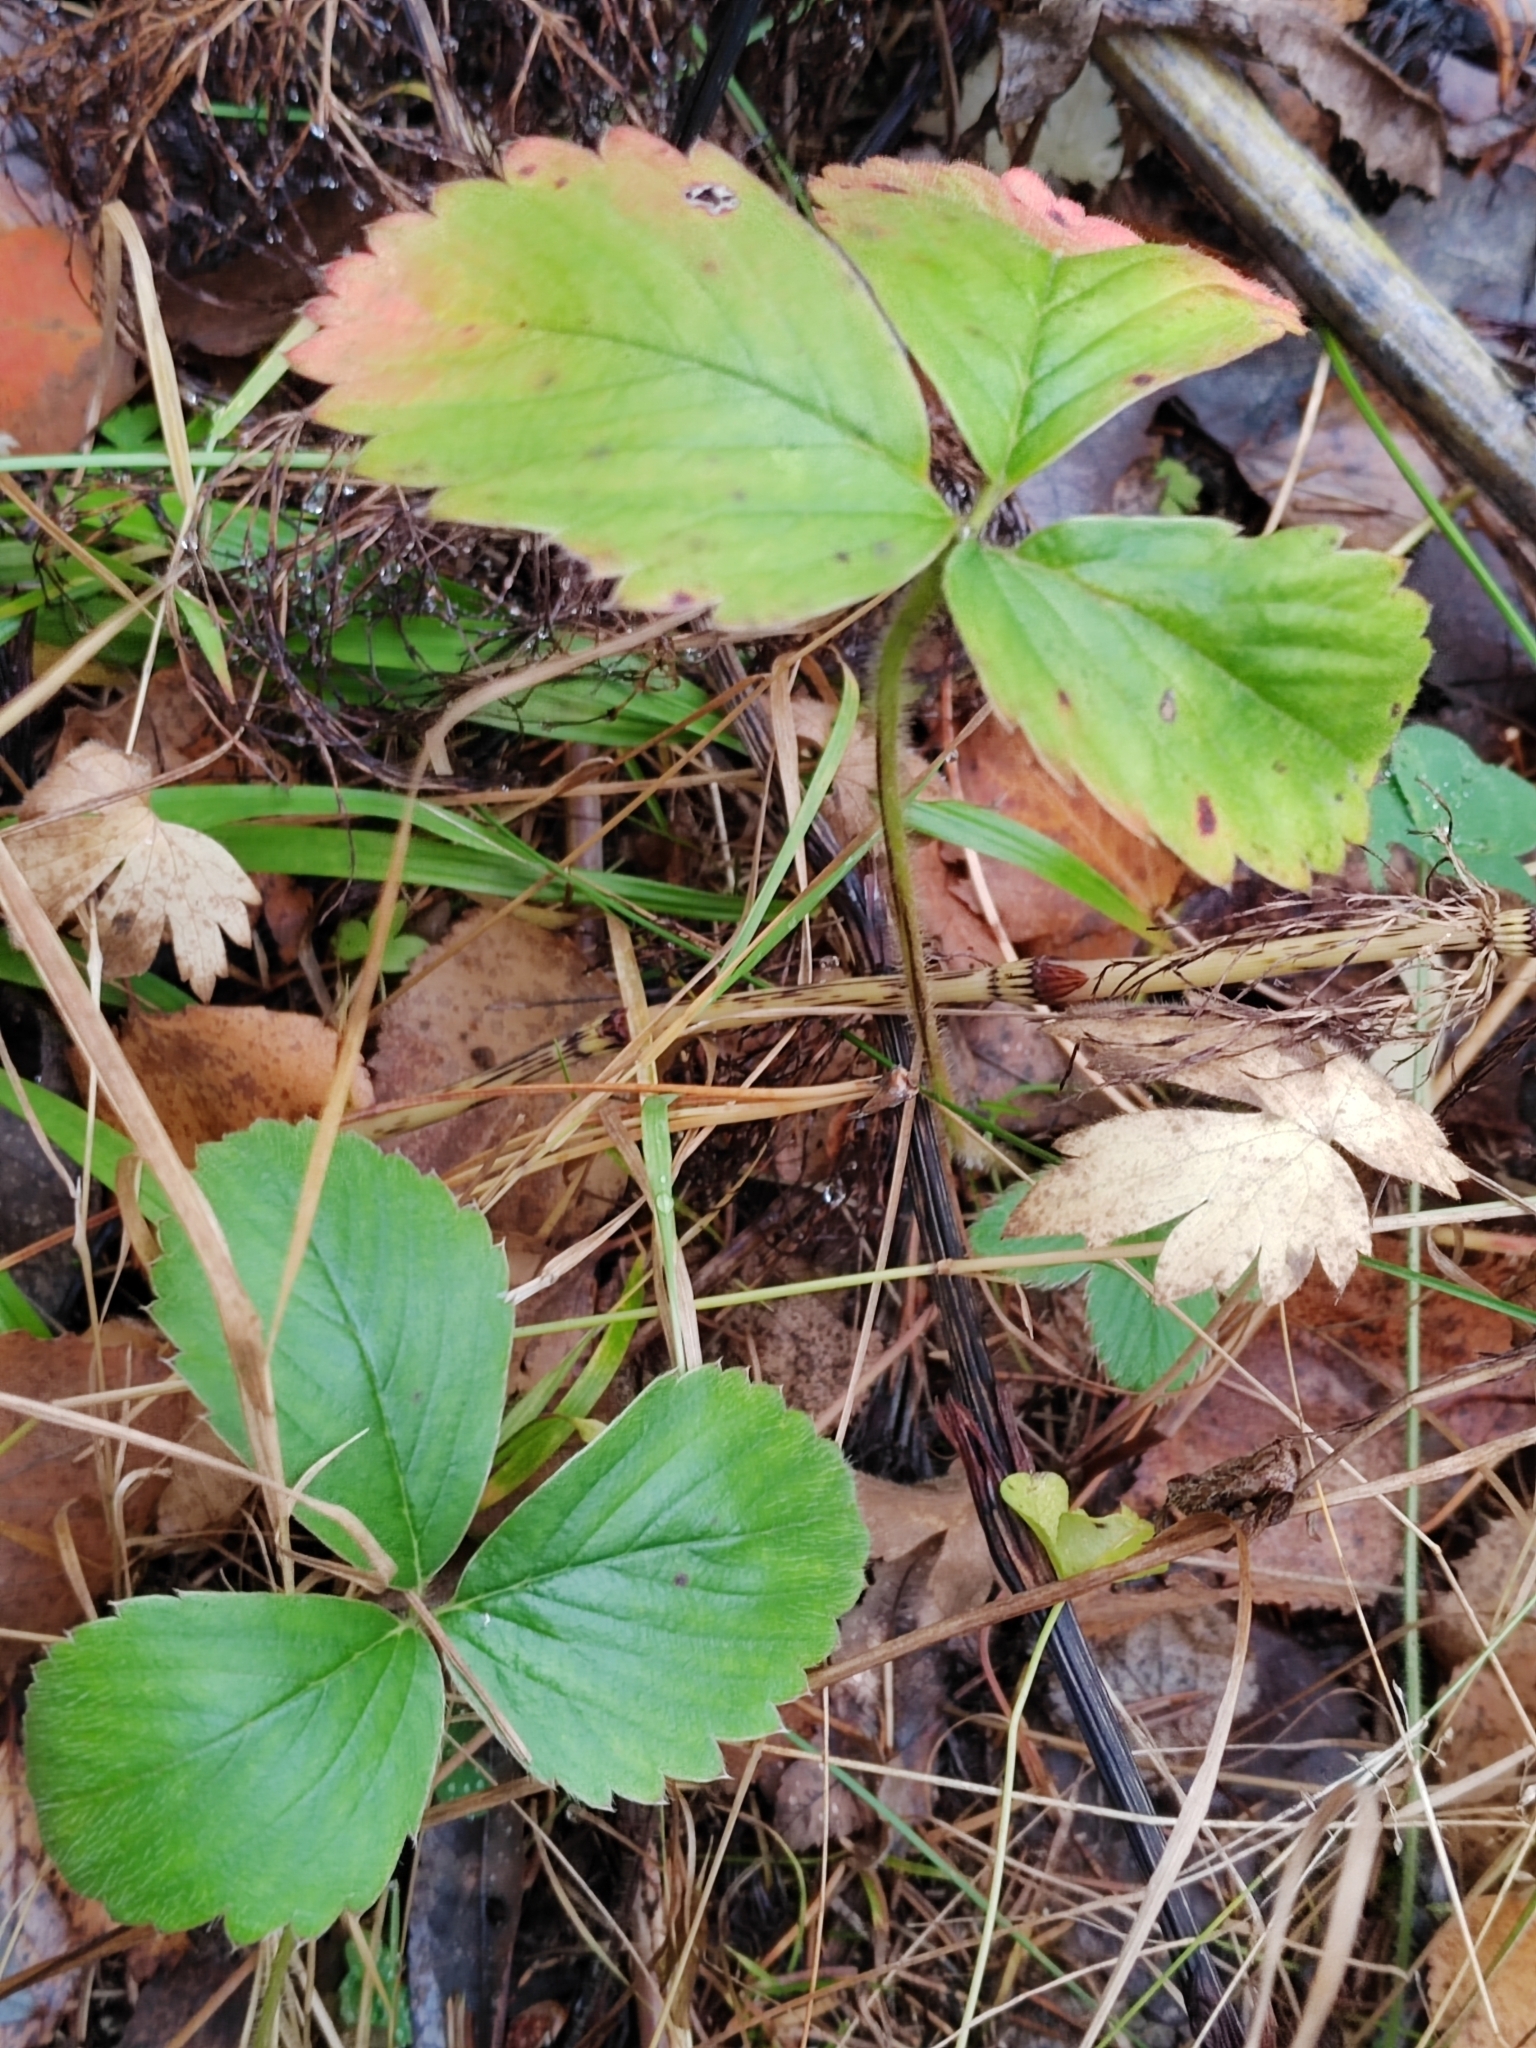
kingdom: Plantae
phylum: Tracheophyta
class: Magnoliopsida
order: Rosales
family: Rosaceae
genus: Fragaria
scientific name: Fragaria ananassa
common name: Garden strawberry
